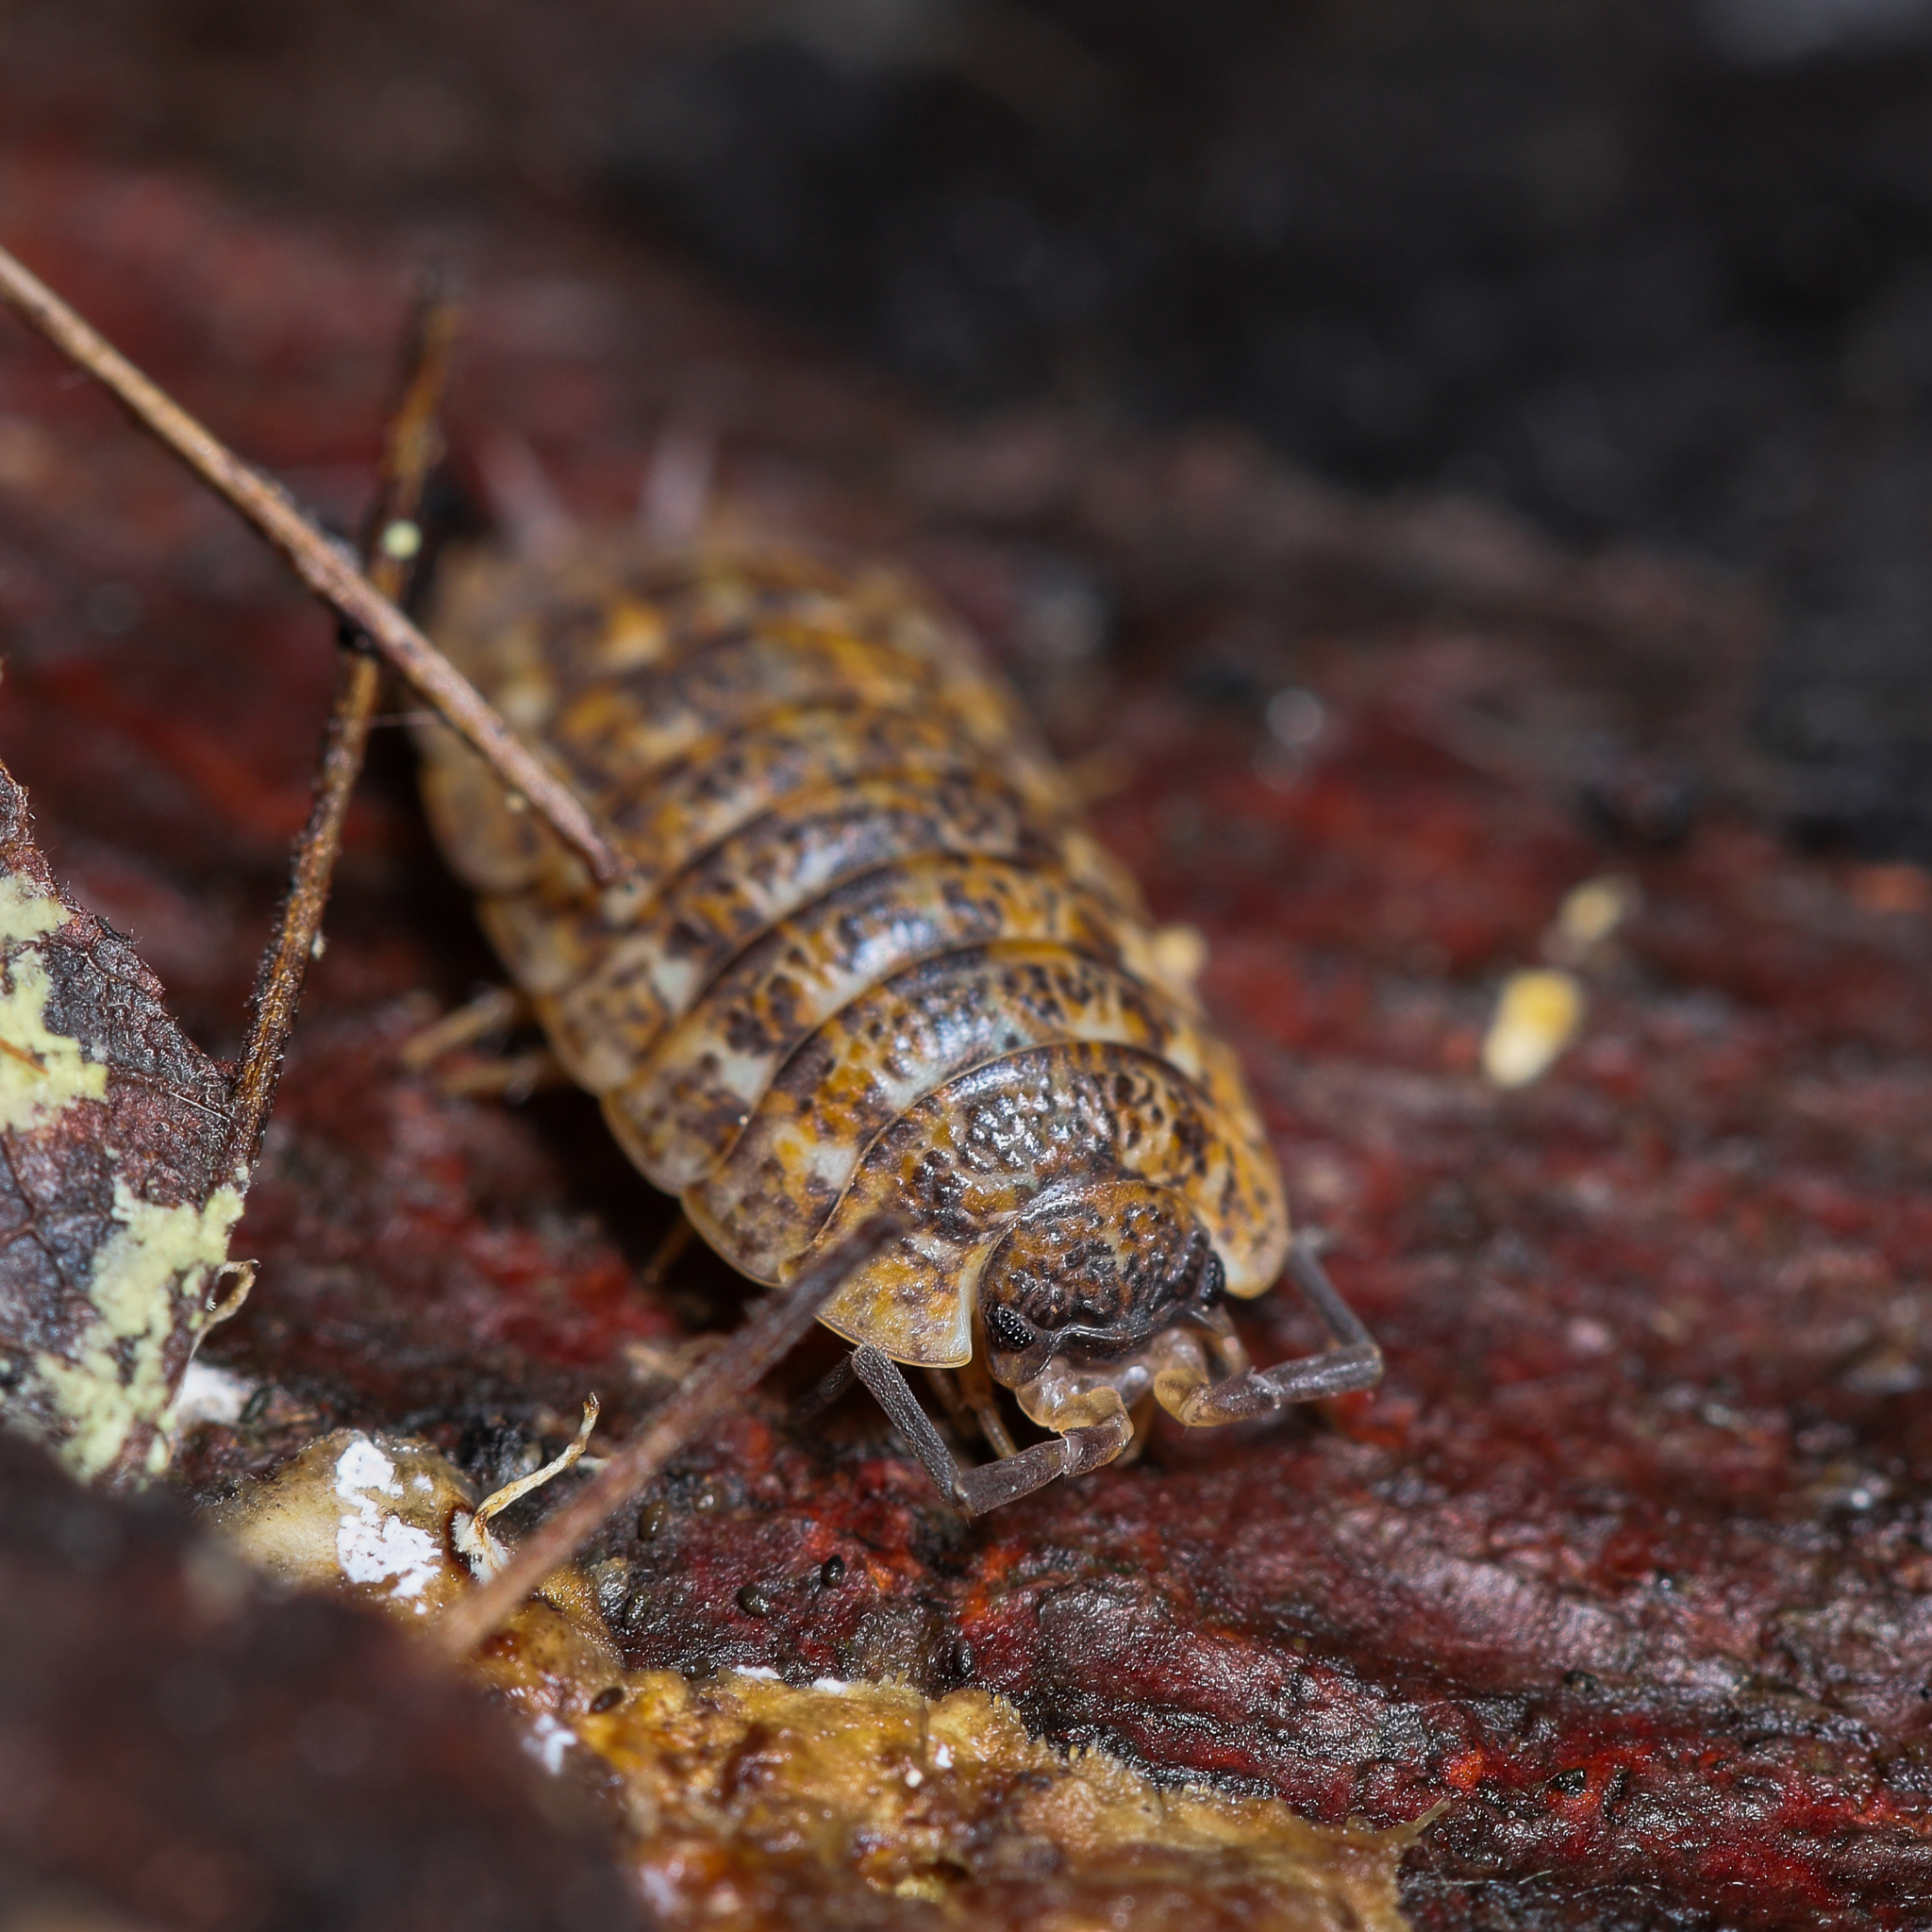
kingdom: Animalia
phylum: Arthropoda
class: Malacostraca
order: Isopoda
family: Trachelipodidae
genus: Trachelipus
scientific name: Trachelipus rathkii
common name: Isopod
